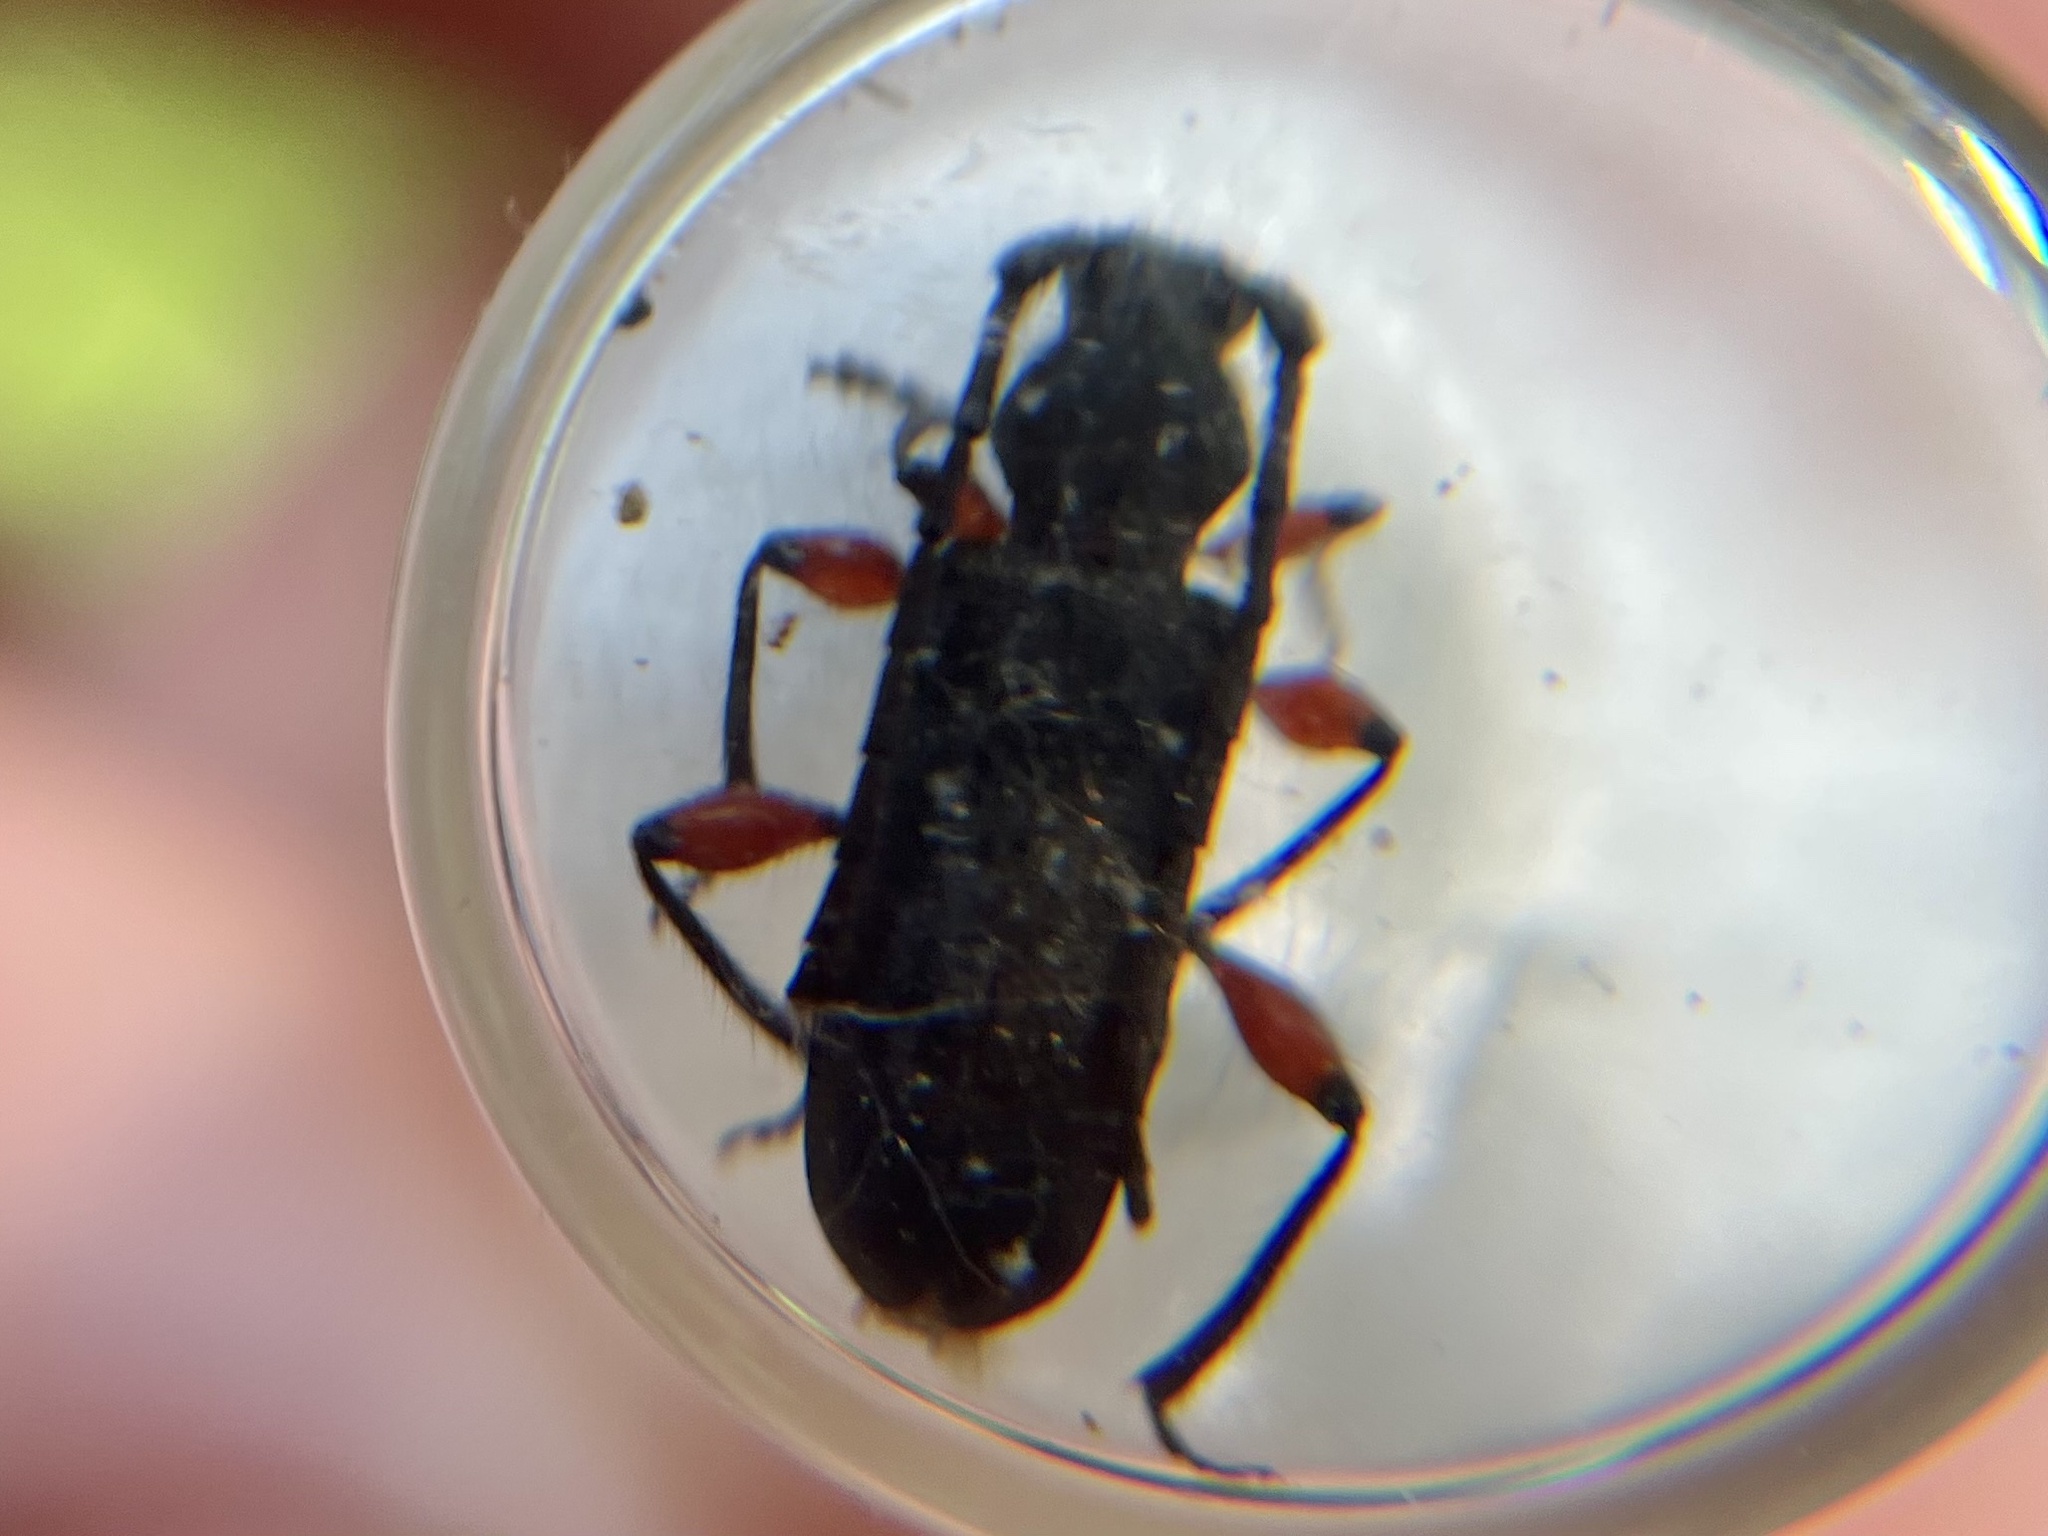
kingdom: Animalia
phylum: Arthropoda
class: Insecta
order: Coleoptera
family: Cerambycidae
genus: Ropalopus
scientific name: Ropalopus femoratus
